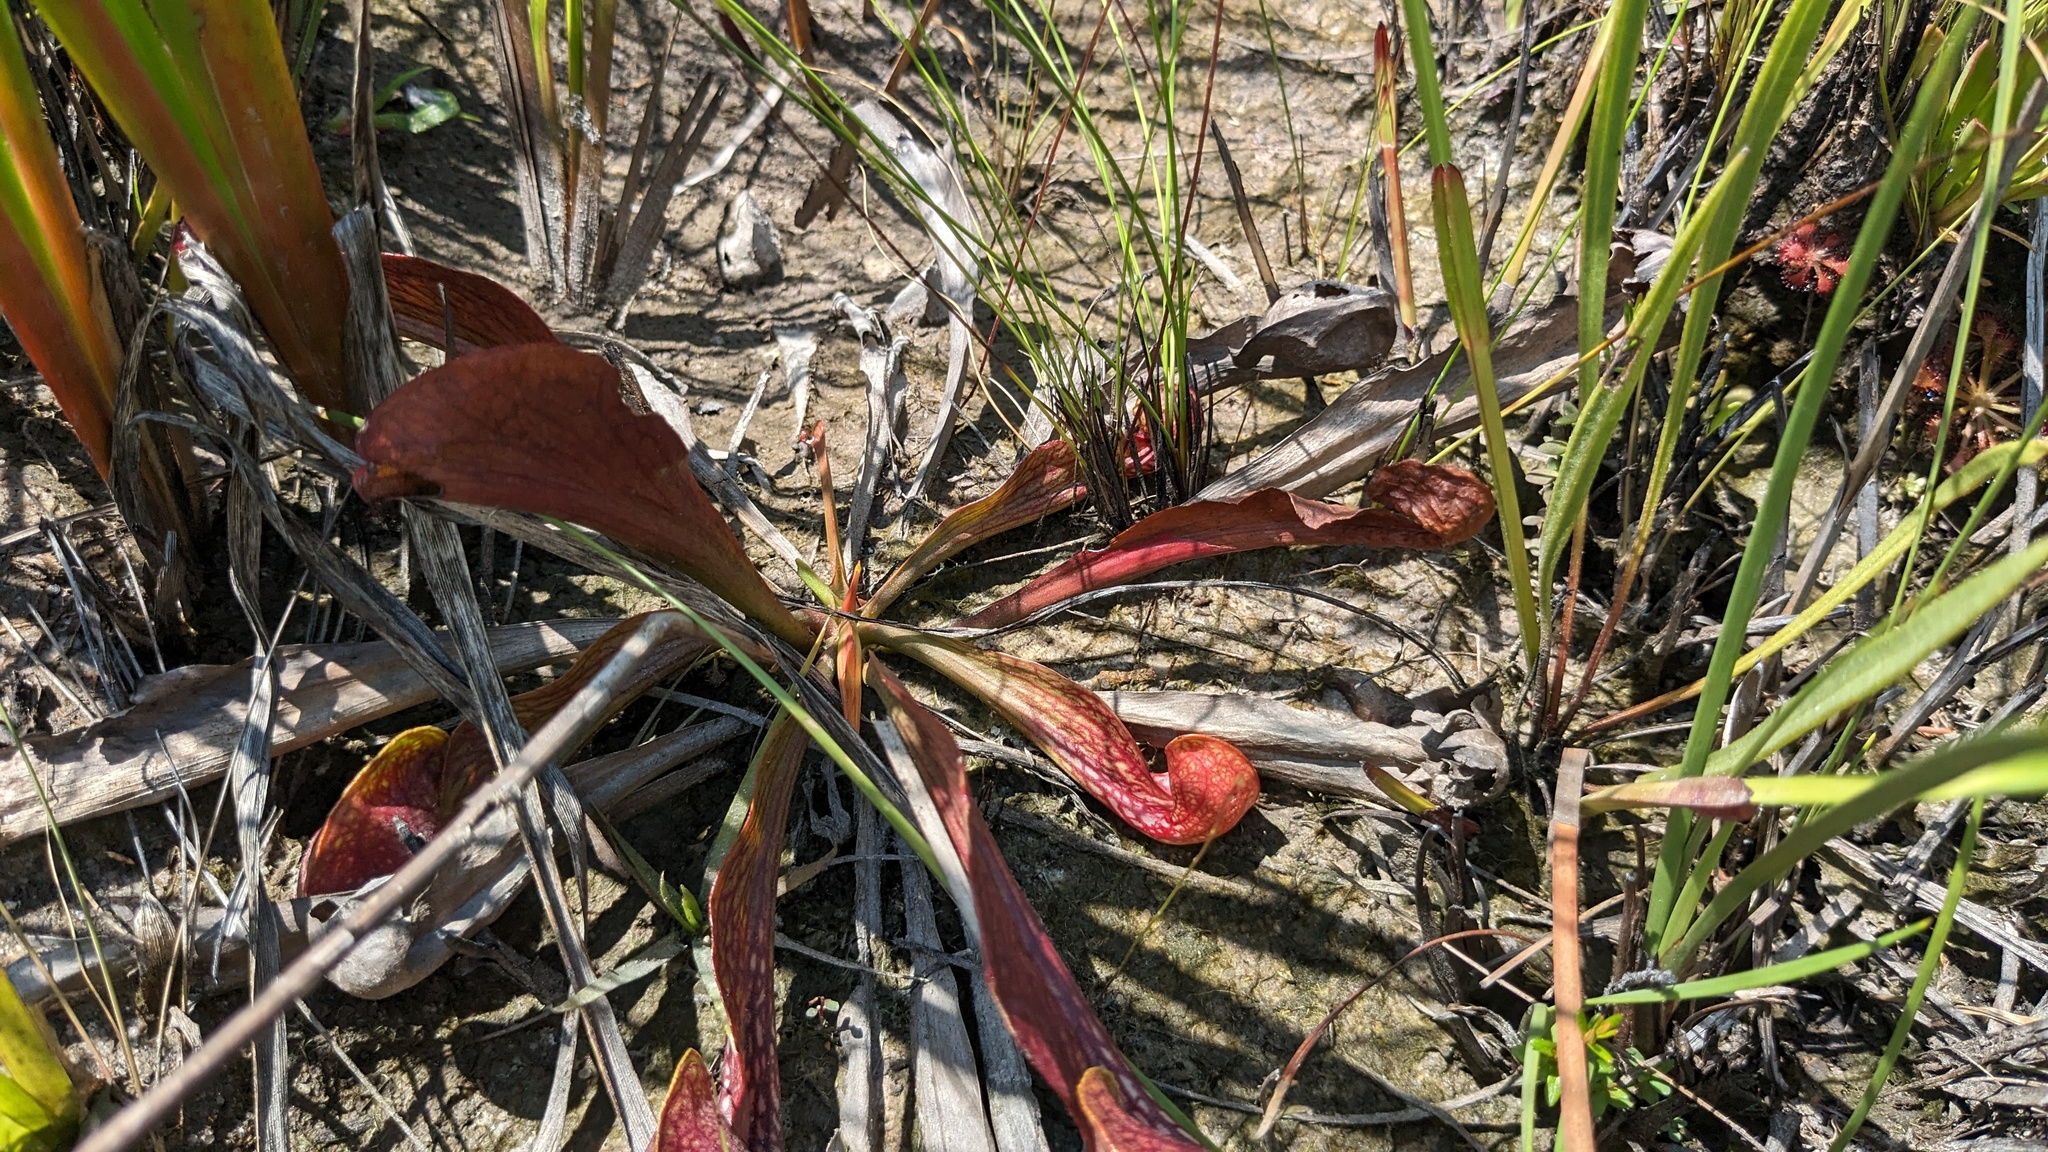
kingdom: Plantae
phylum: Tracheophyta
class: Magnoliopsida
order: Ericales
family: Sarraceniaceae
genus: Sarracenia
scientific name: Sarracenia psittacina
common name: Parrot pitcherplant
